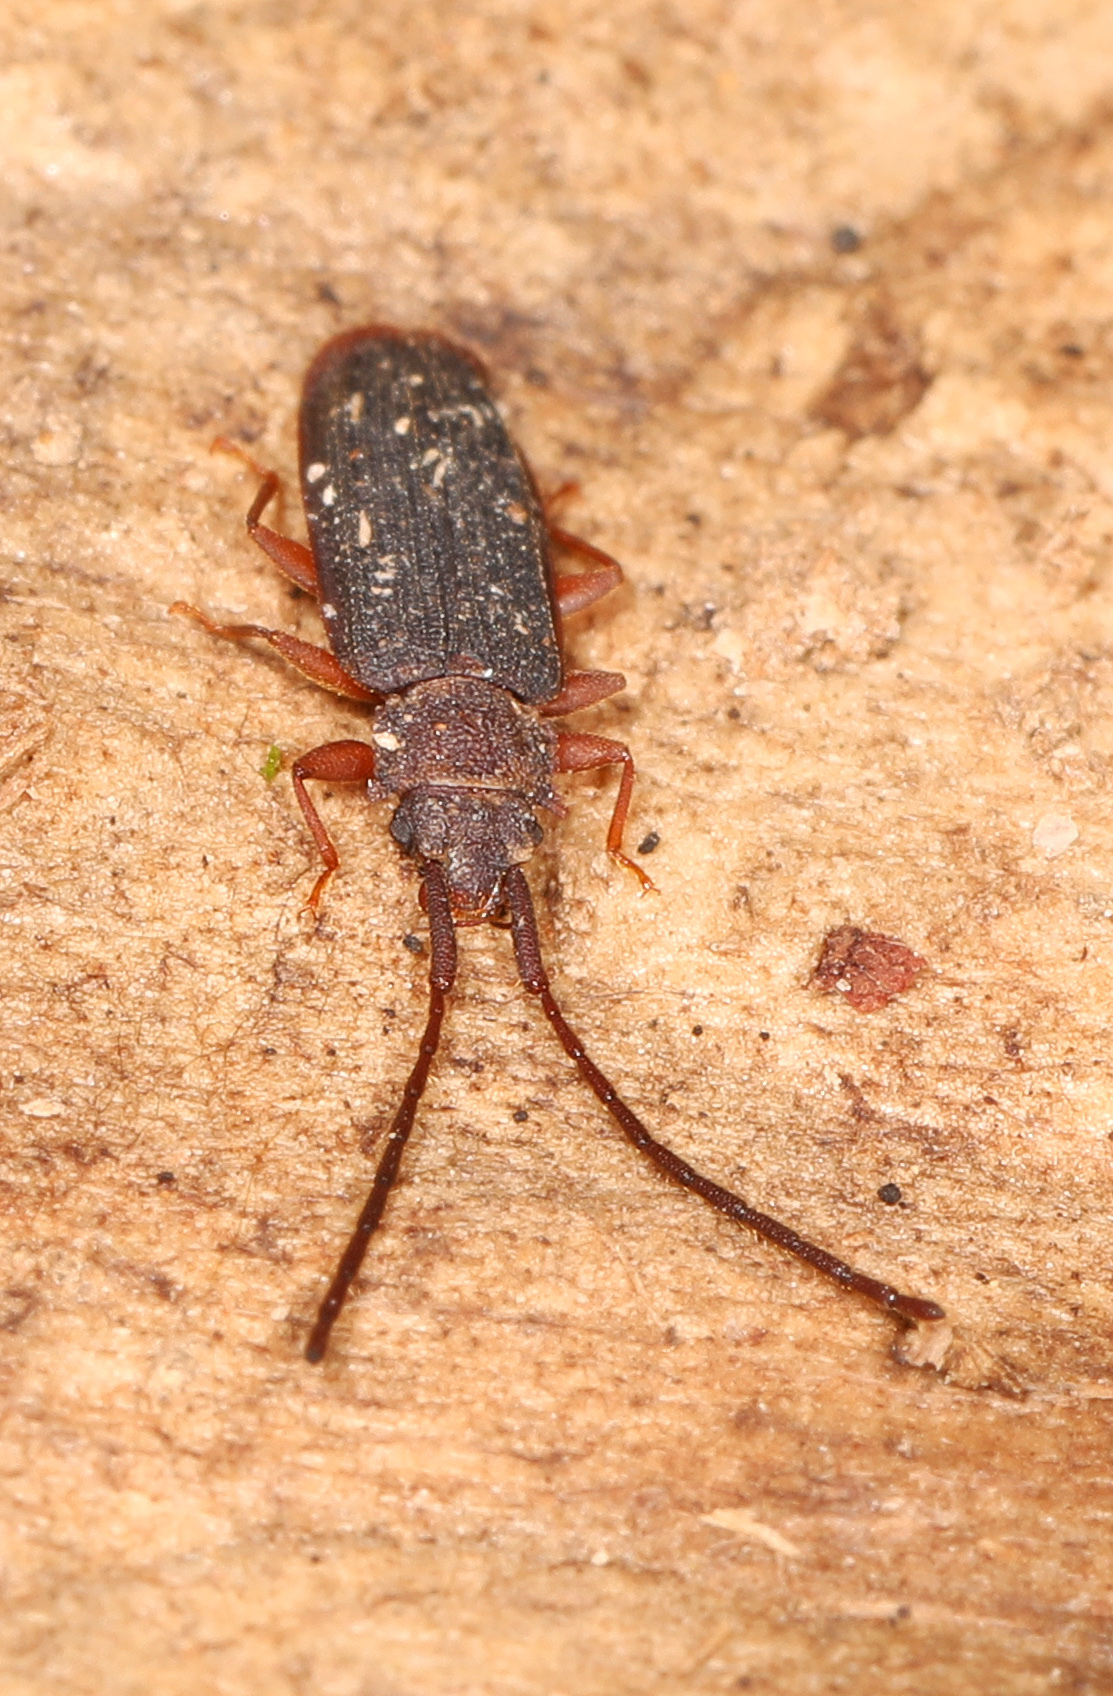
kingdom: Animalia
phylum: Arthropoda
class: Insecta
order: Coleoptera
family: Silvanidae
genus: Uleiota
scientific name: Uleiota dubia
